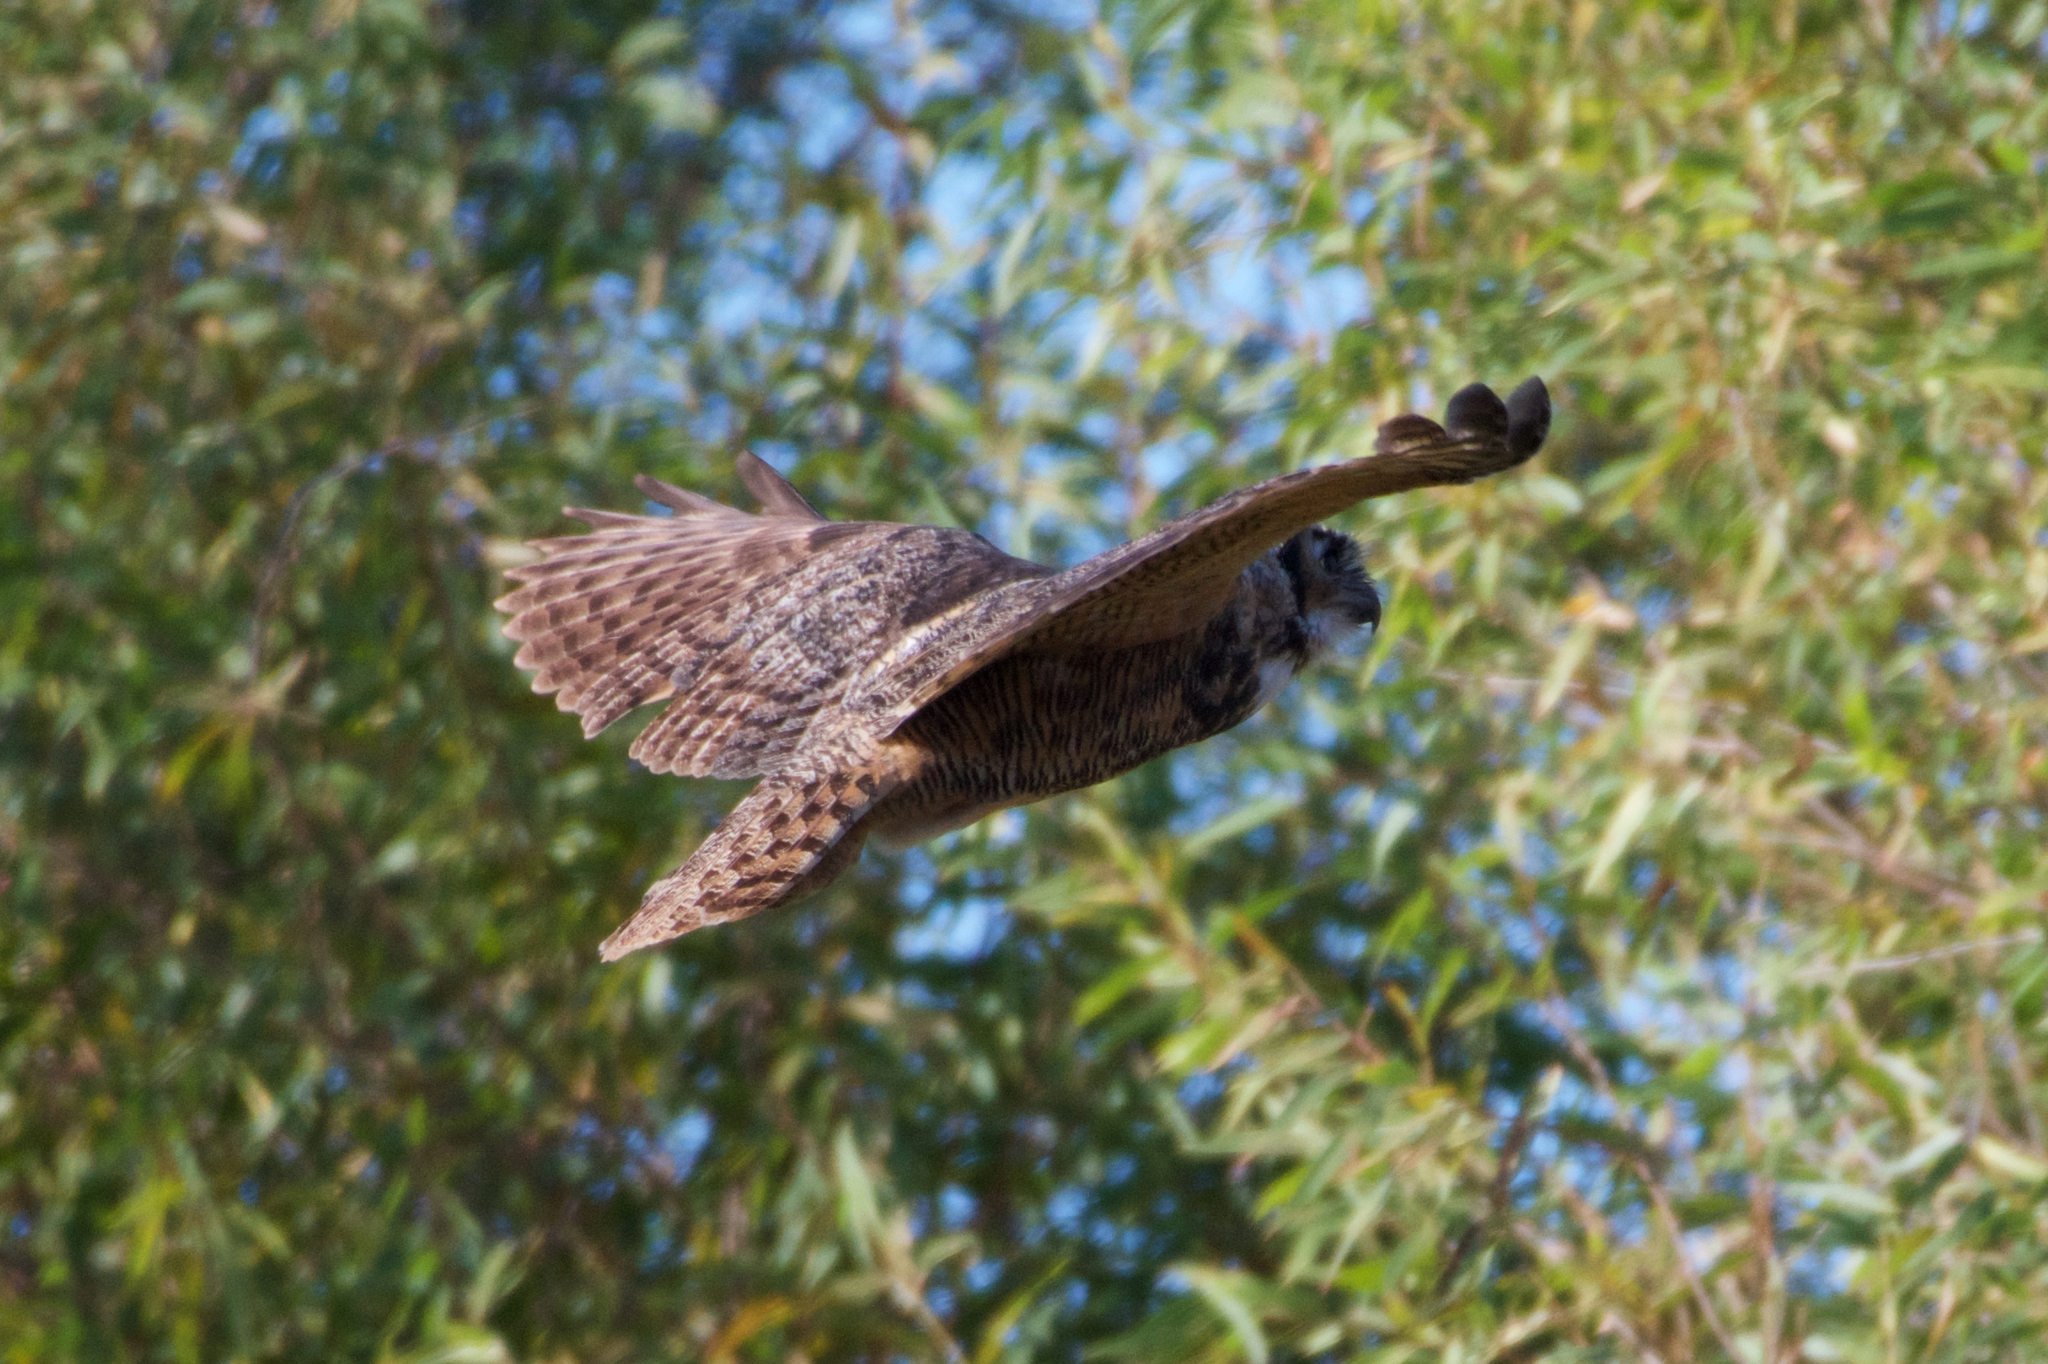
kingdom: Animalia
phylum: Chordata
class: Aves
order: Strigiformes
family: Strigidae
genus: Bubo
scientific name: Bubo virginianus
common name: Great horned owl
